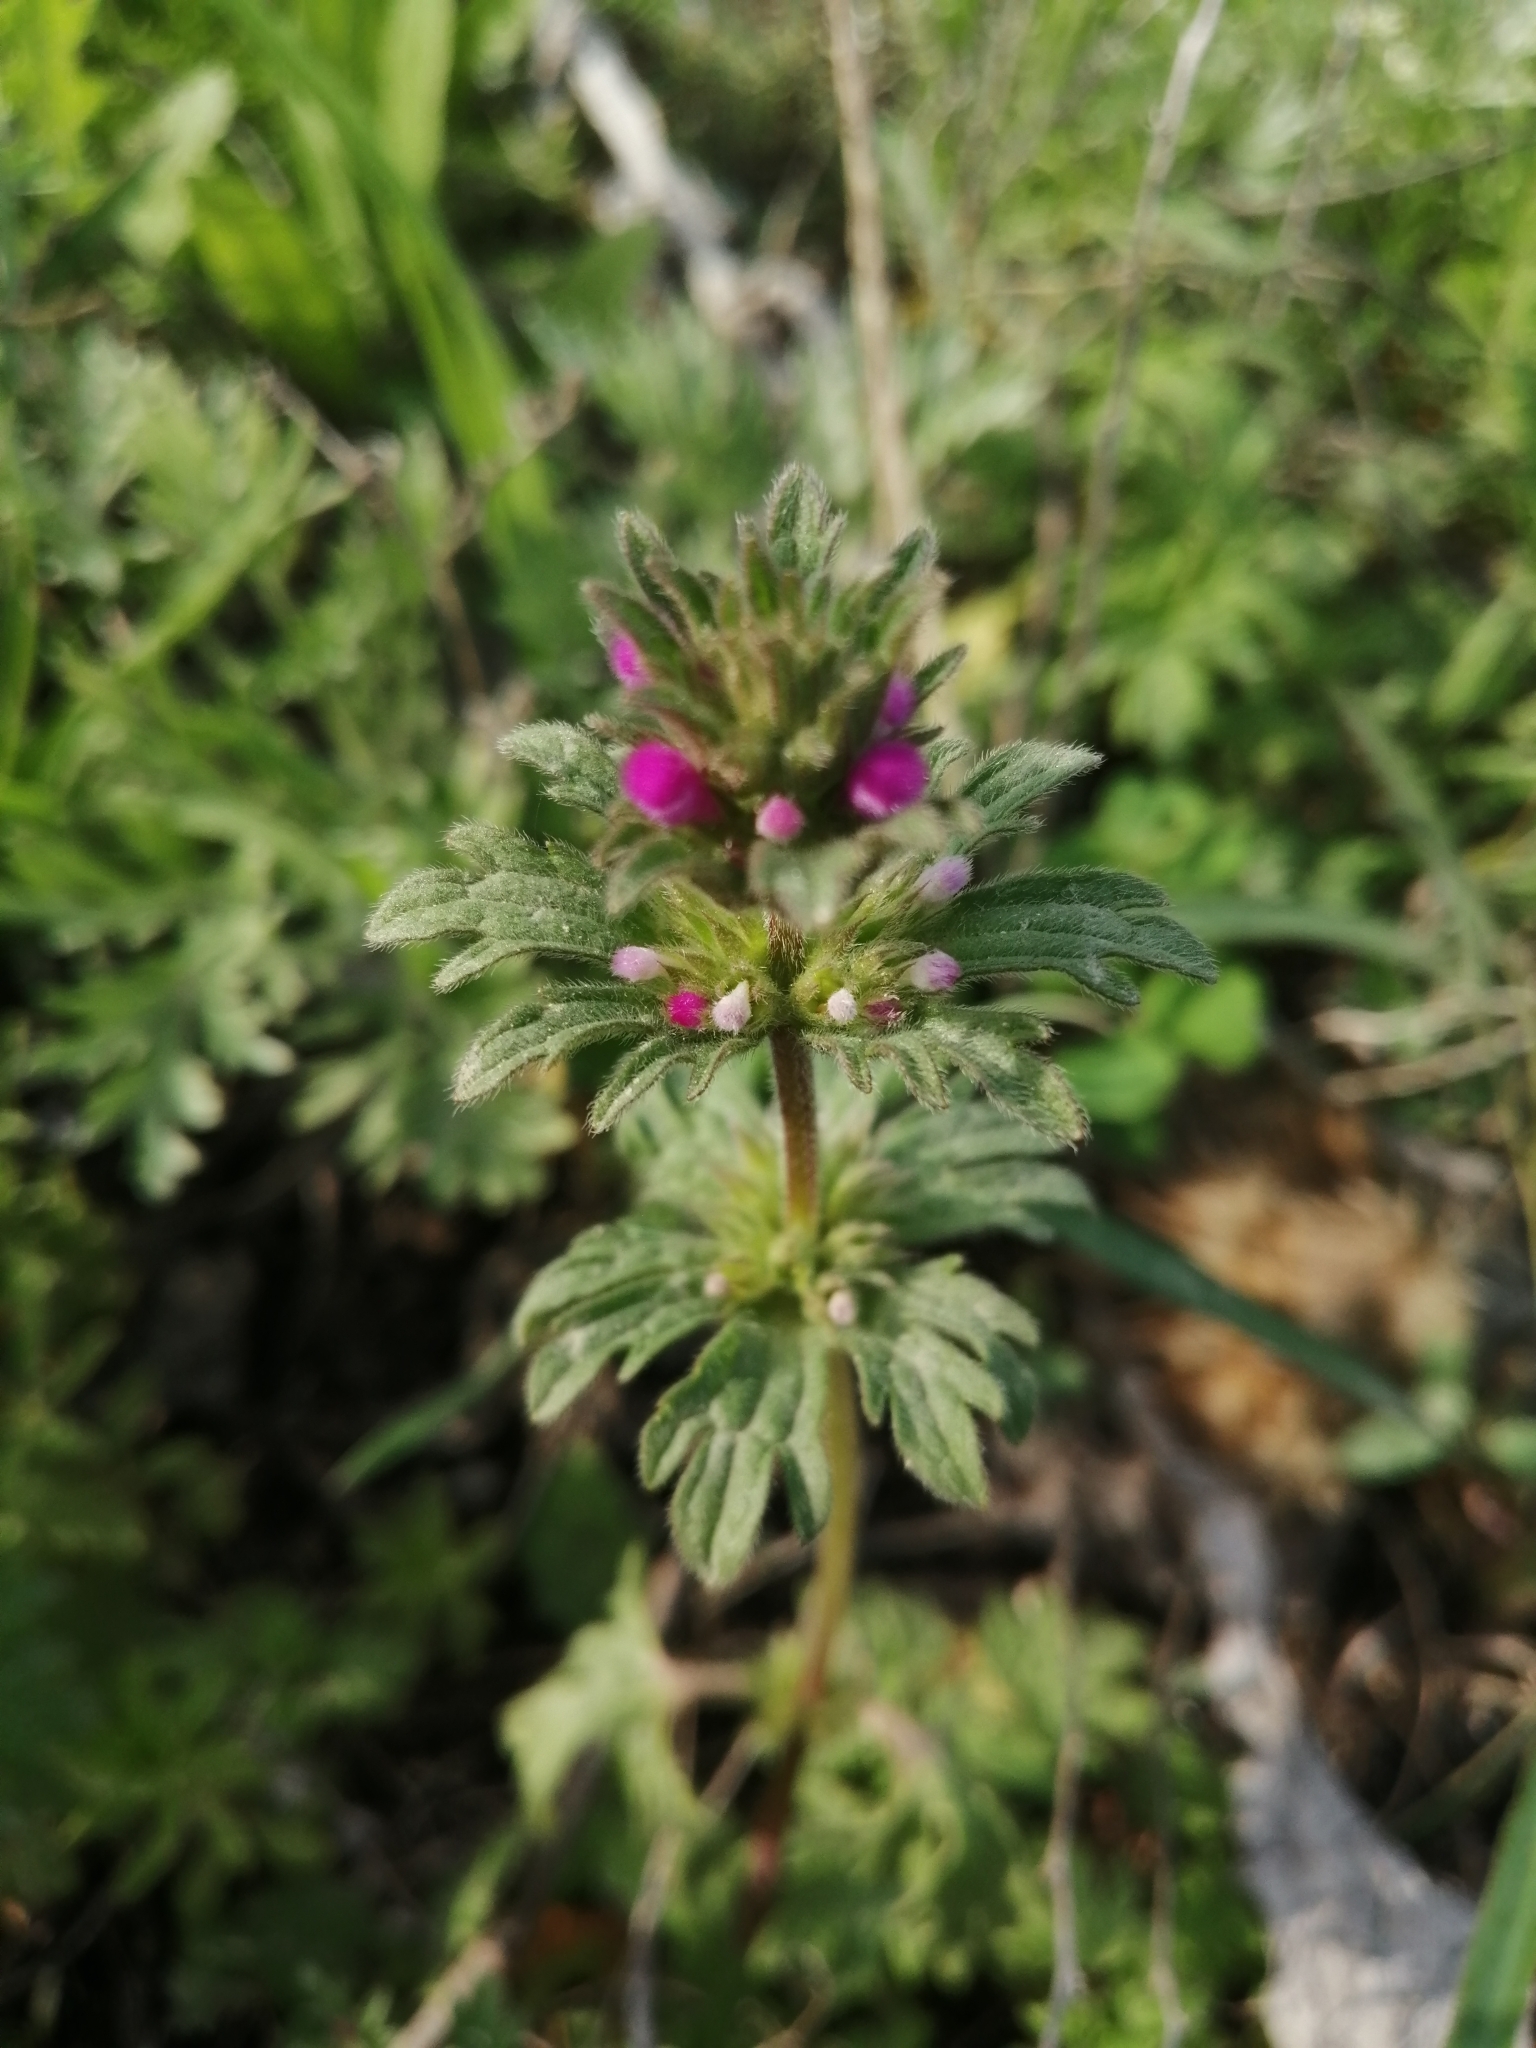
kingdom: Plantae
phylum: Tracheophyta
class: Magnoliopsida
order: Lamiales
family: Lamiaceae
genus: Lamium
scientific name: Lamium amplexicaule
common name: Henbit dead-nettle
